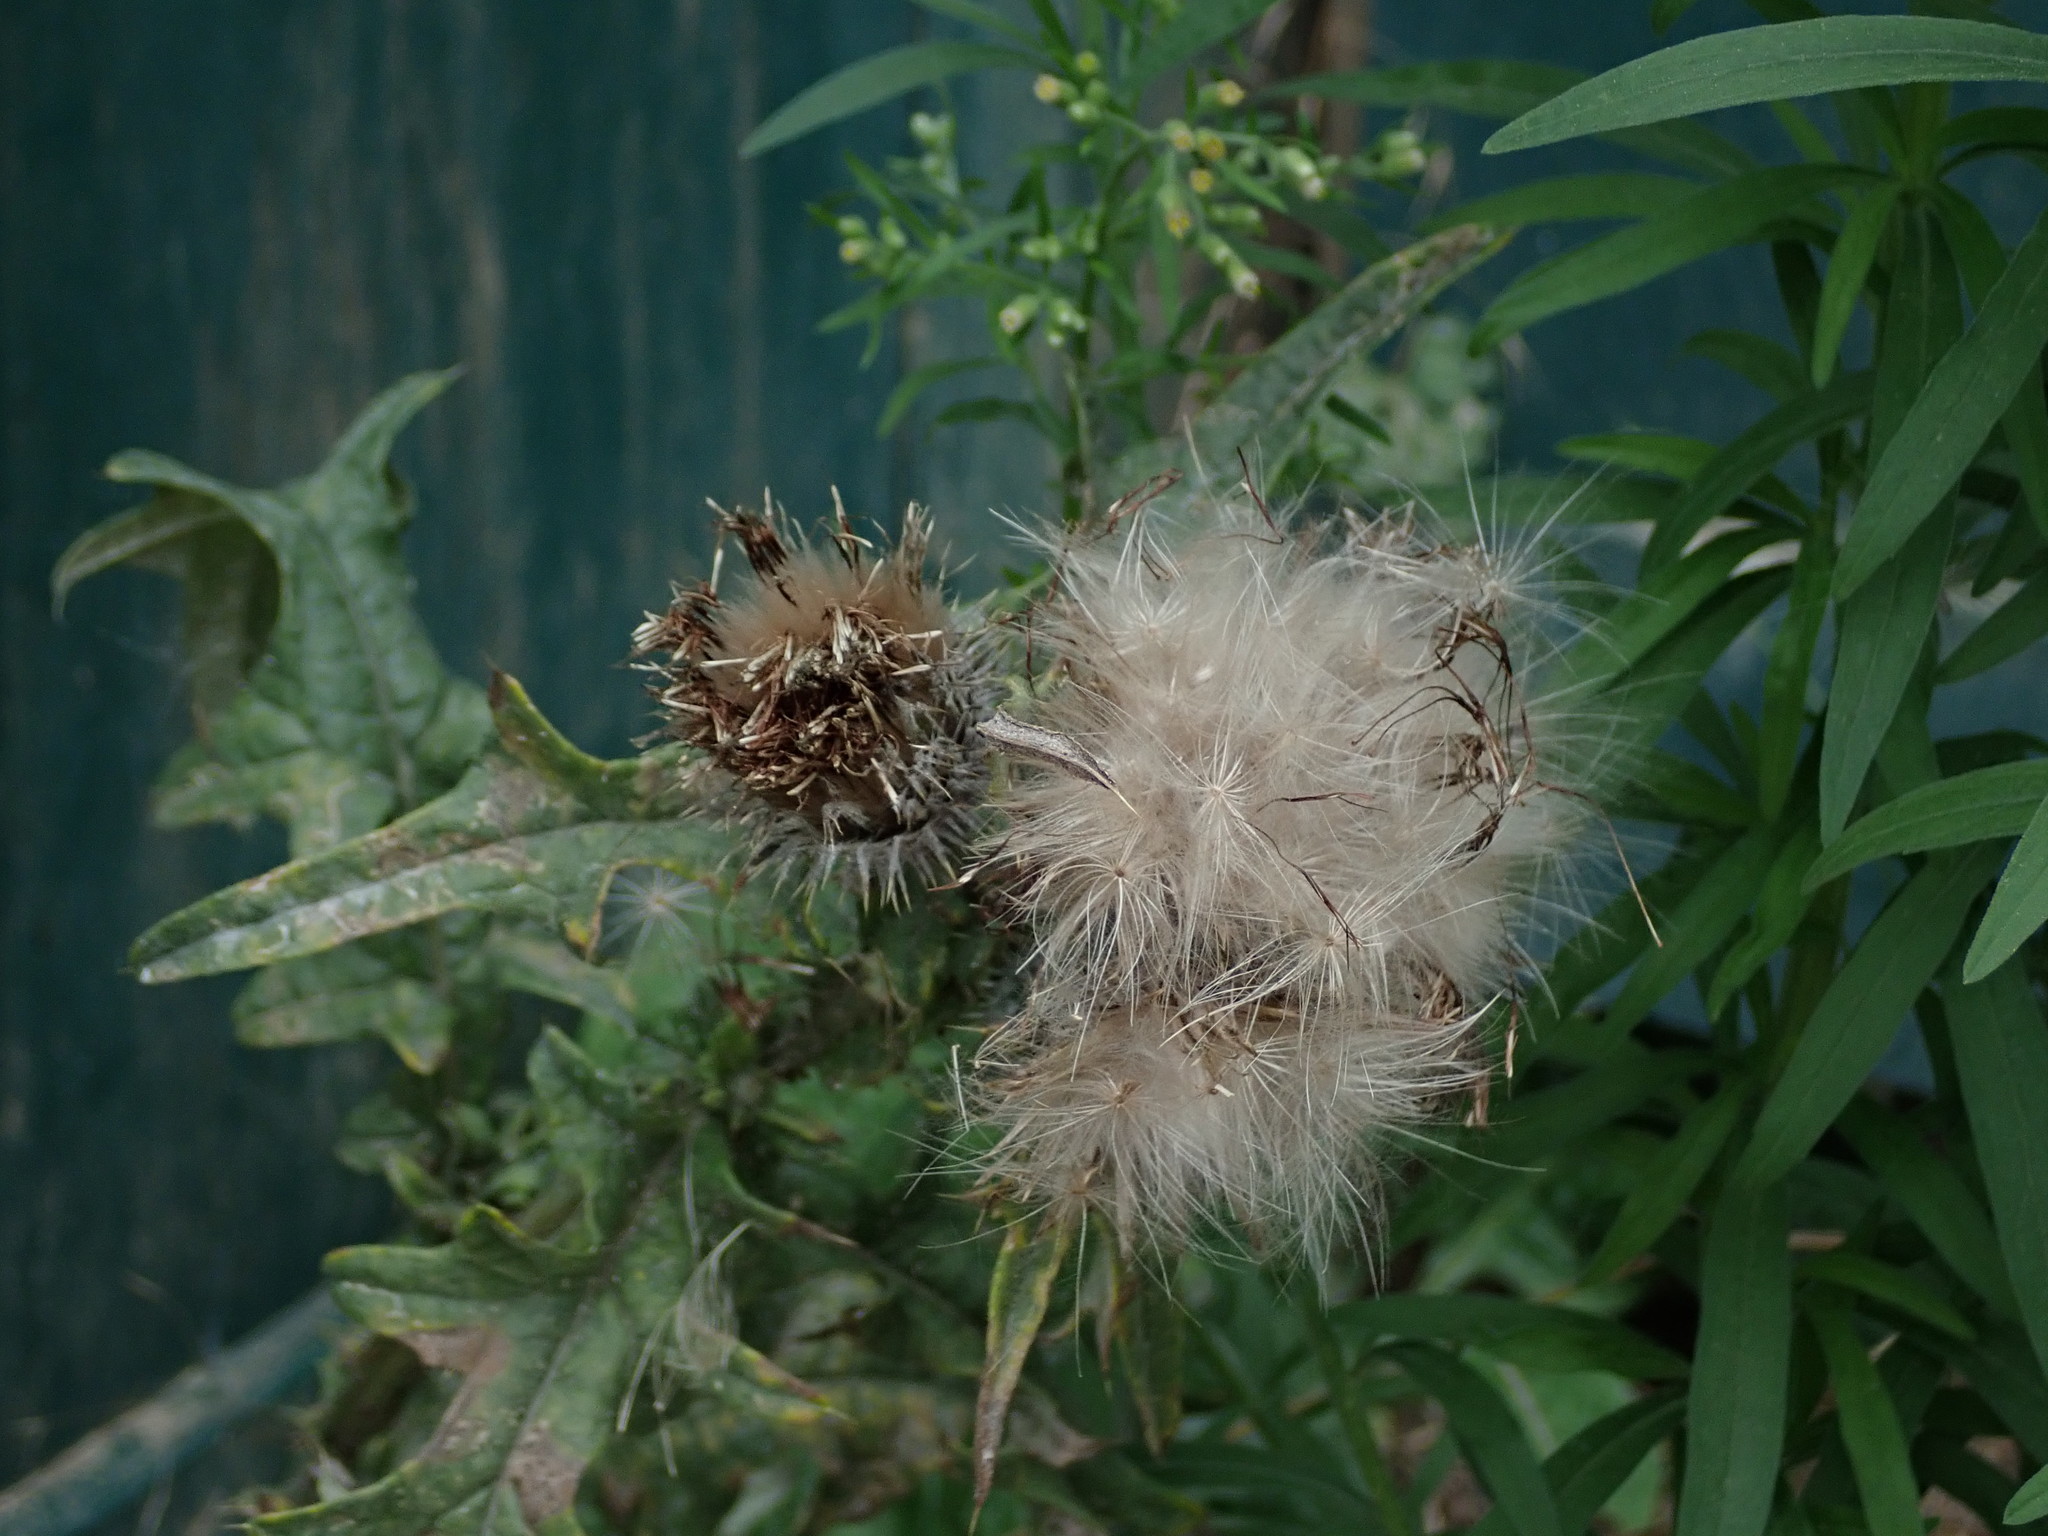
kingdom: Plantae
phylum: Tracheophyta
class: Magnoliopsida
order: Asterales
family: Asteraceae
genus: Cirsium
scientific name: Cirsium vulgare
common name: Bull thistle
